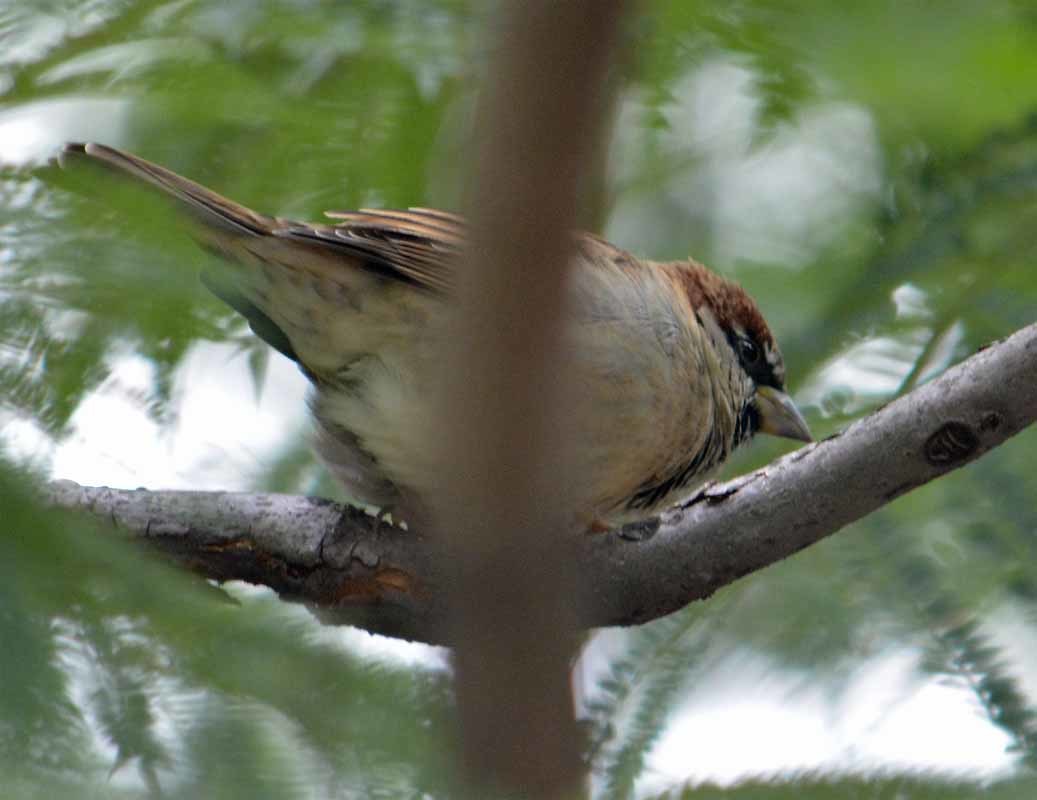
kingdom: Animalia
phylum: Chordata
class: Aves
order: Passeriformes
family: Passeridae
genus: Passer
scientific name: Passer domesticus
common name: House sparrow
